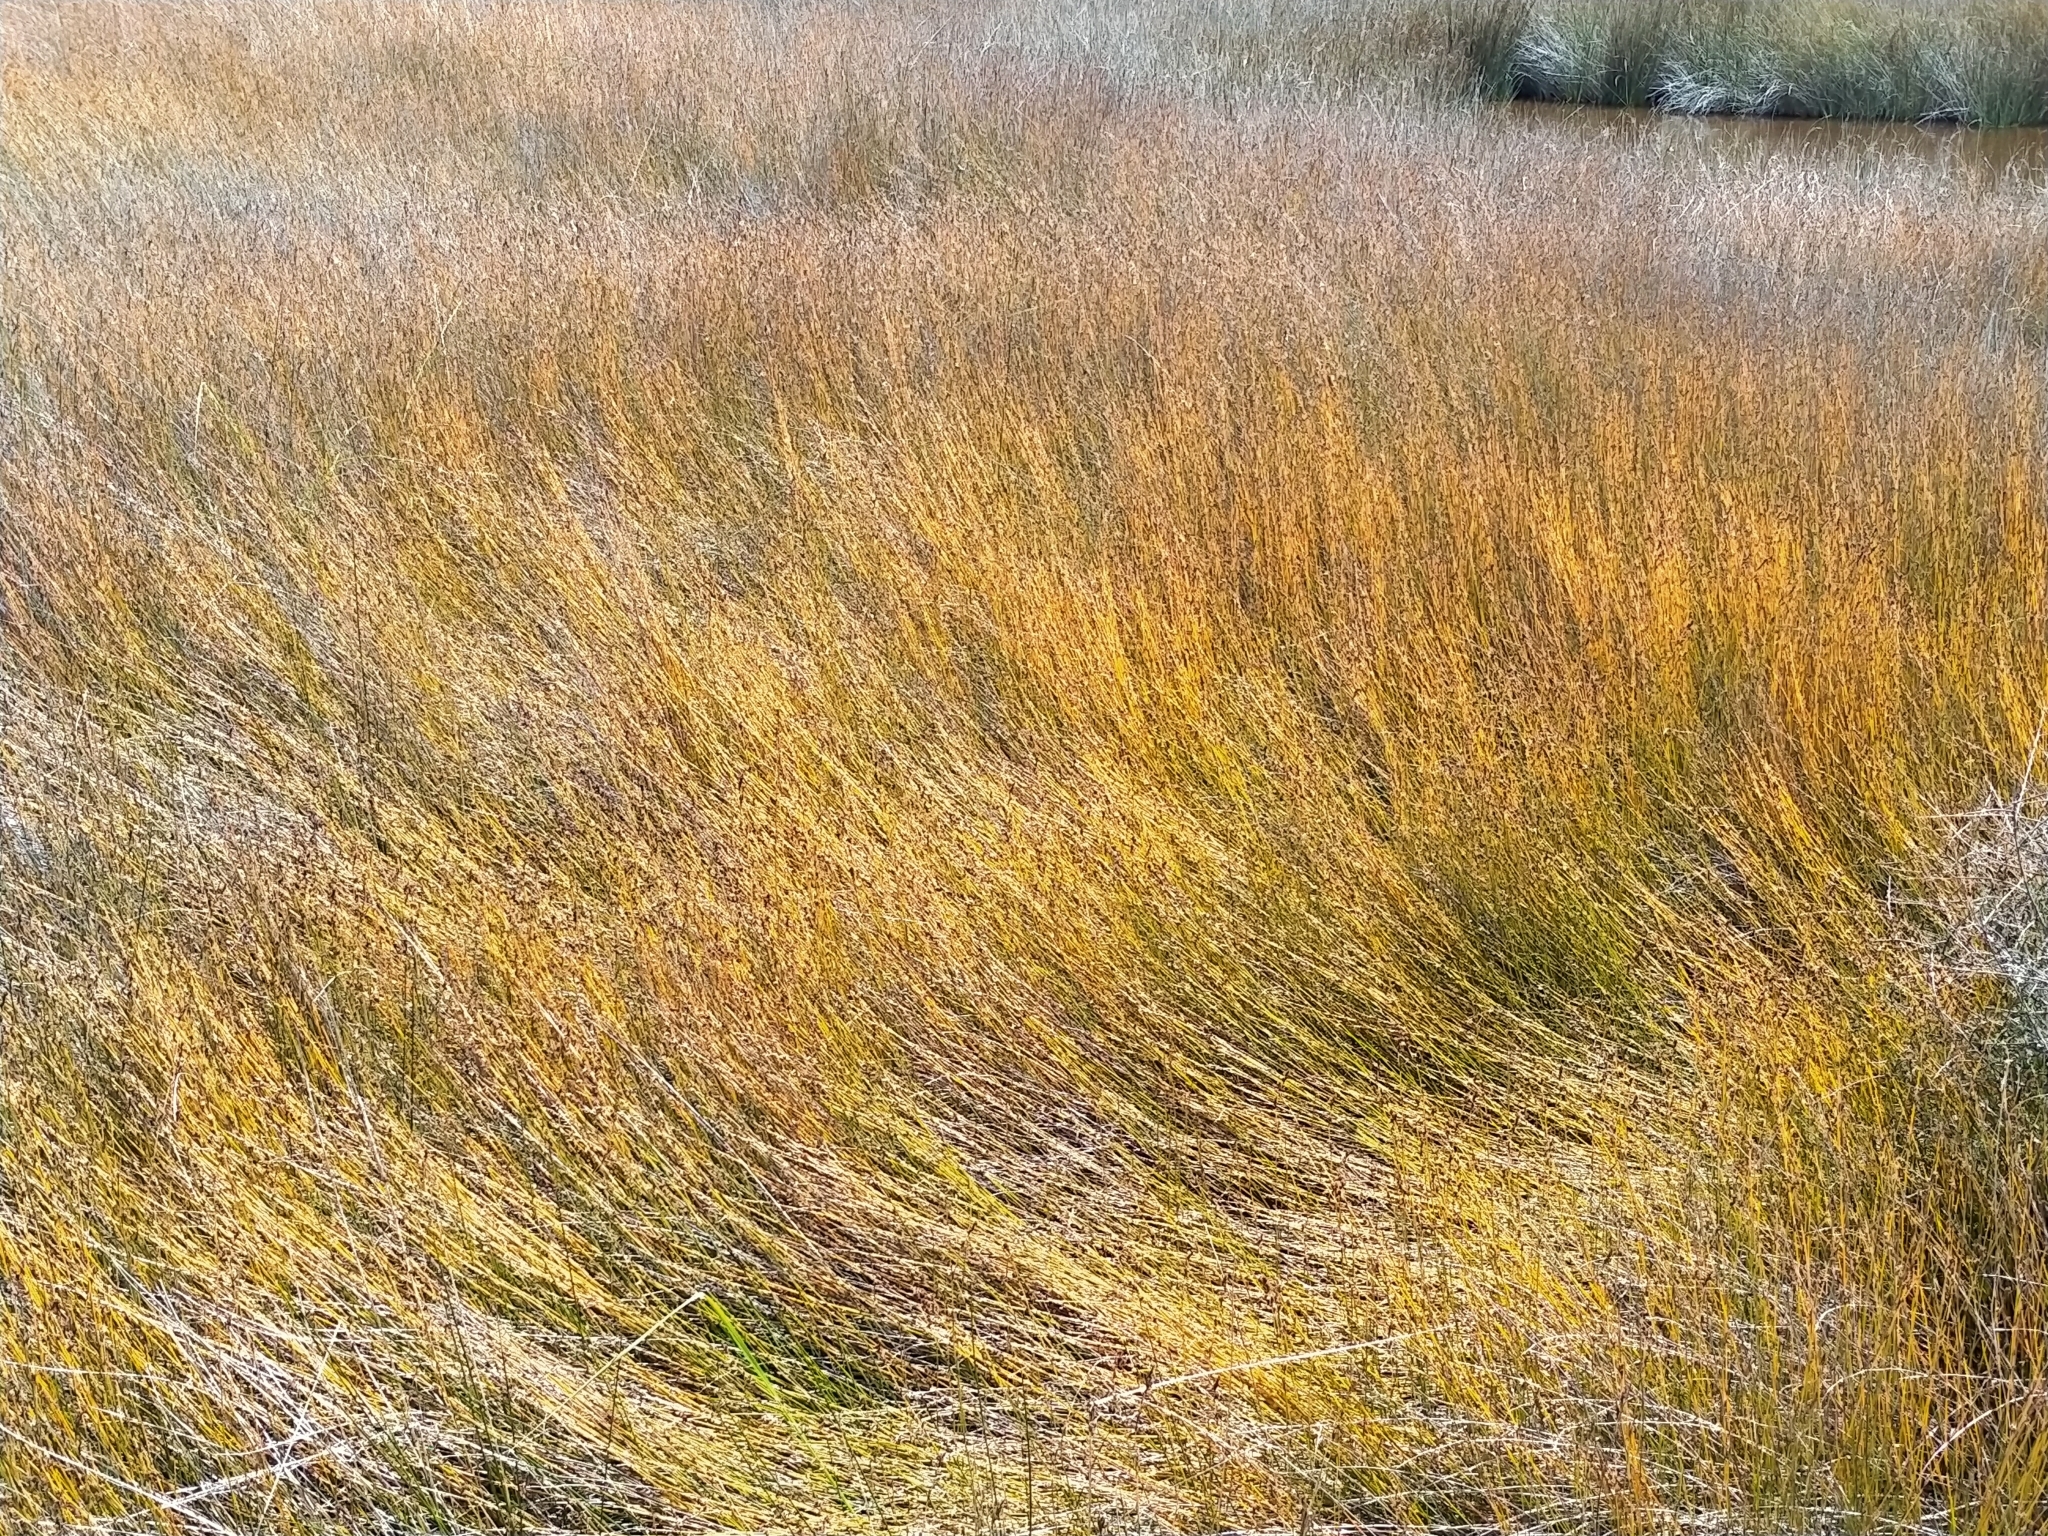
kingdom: Plantae
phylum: Tracheophyta
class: Liliopsida
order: Poales
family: Restionaceae
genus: Apodasmia
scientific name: Apodasmia similis
